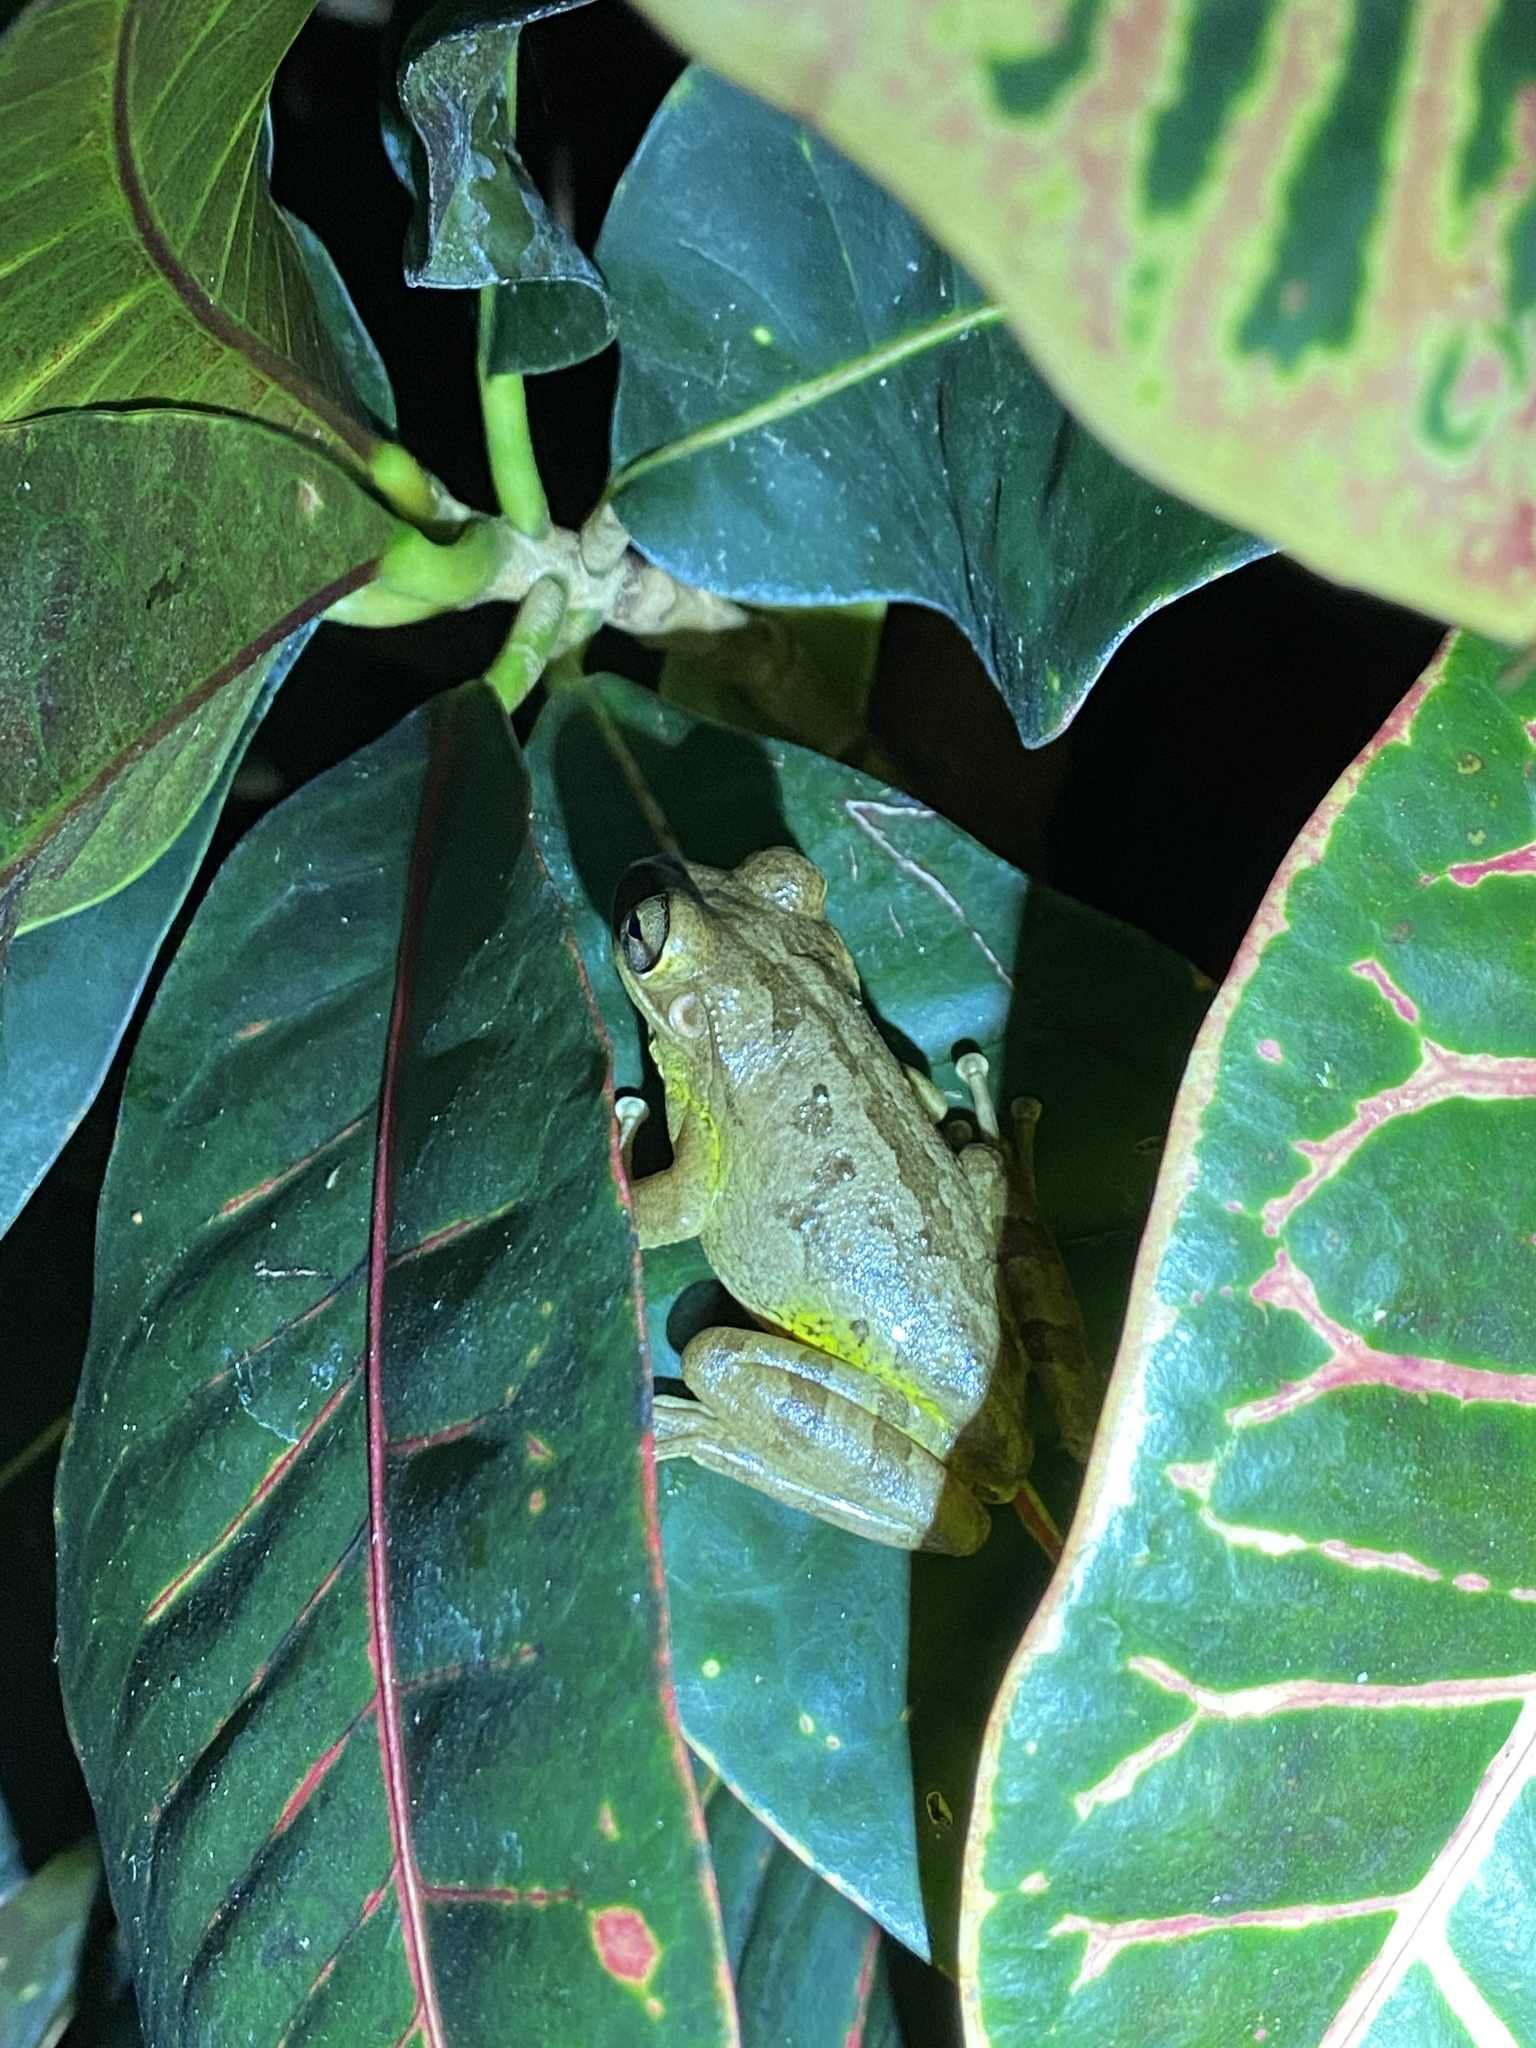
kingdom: Animalia
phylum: Chordata
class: Amphibia
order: Anura
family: Hylidae
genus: Osteopilus
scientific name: Osteopilus septentrionalis
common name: Cuban treefrog
